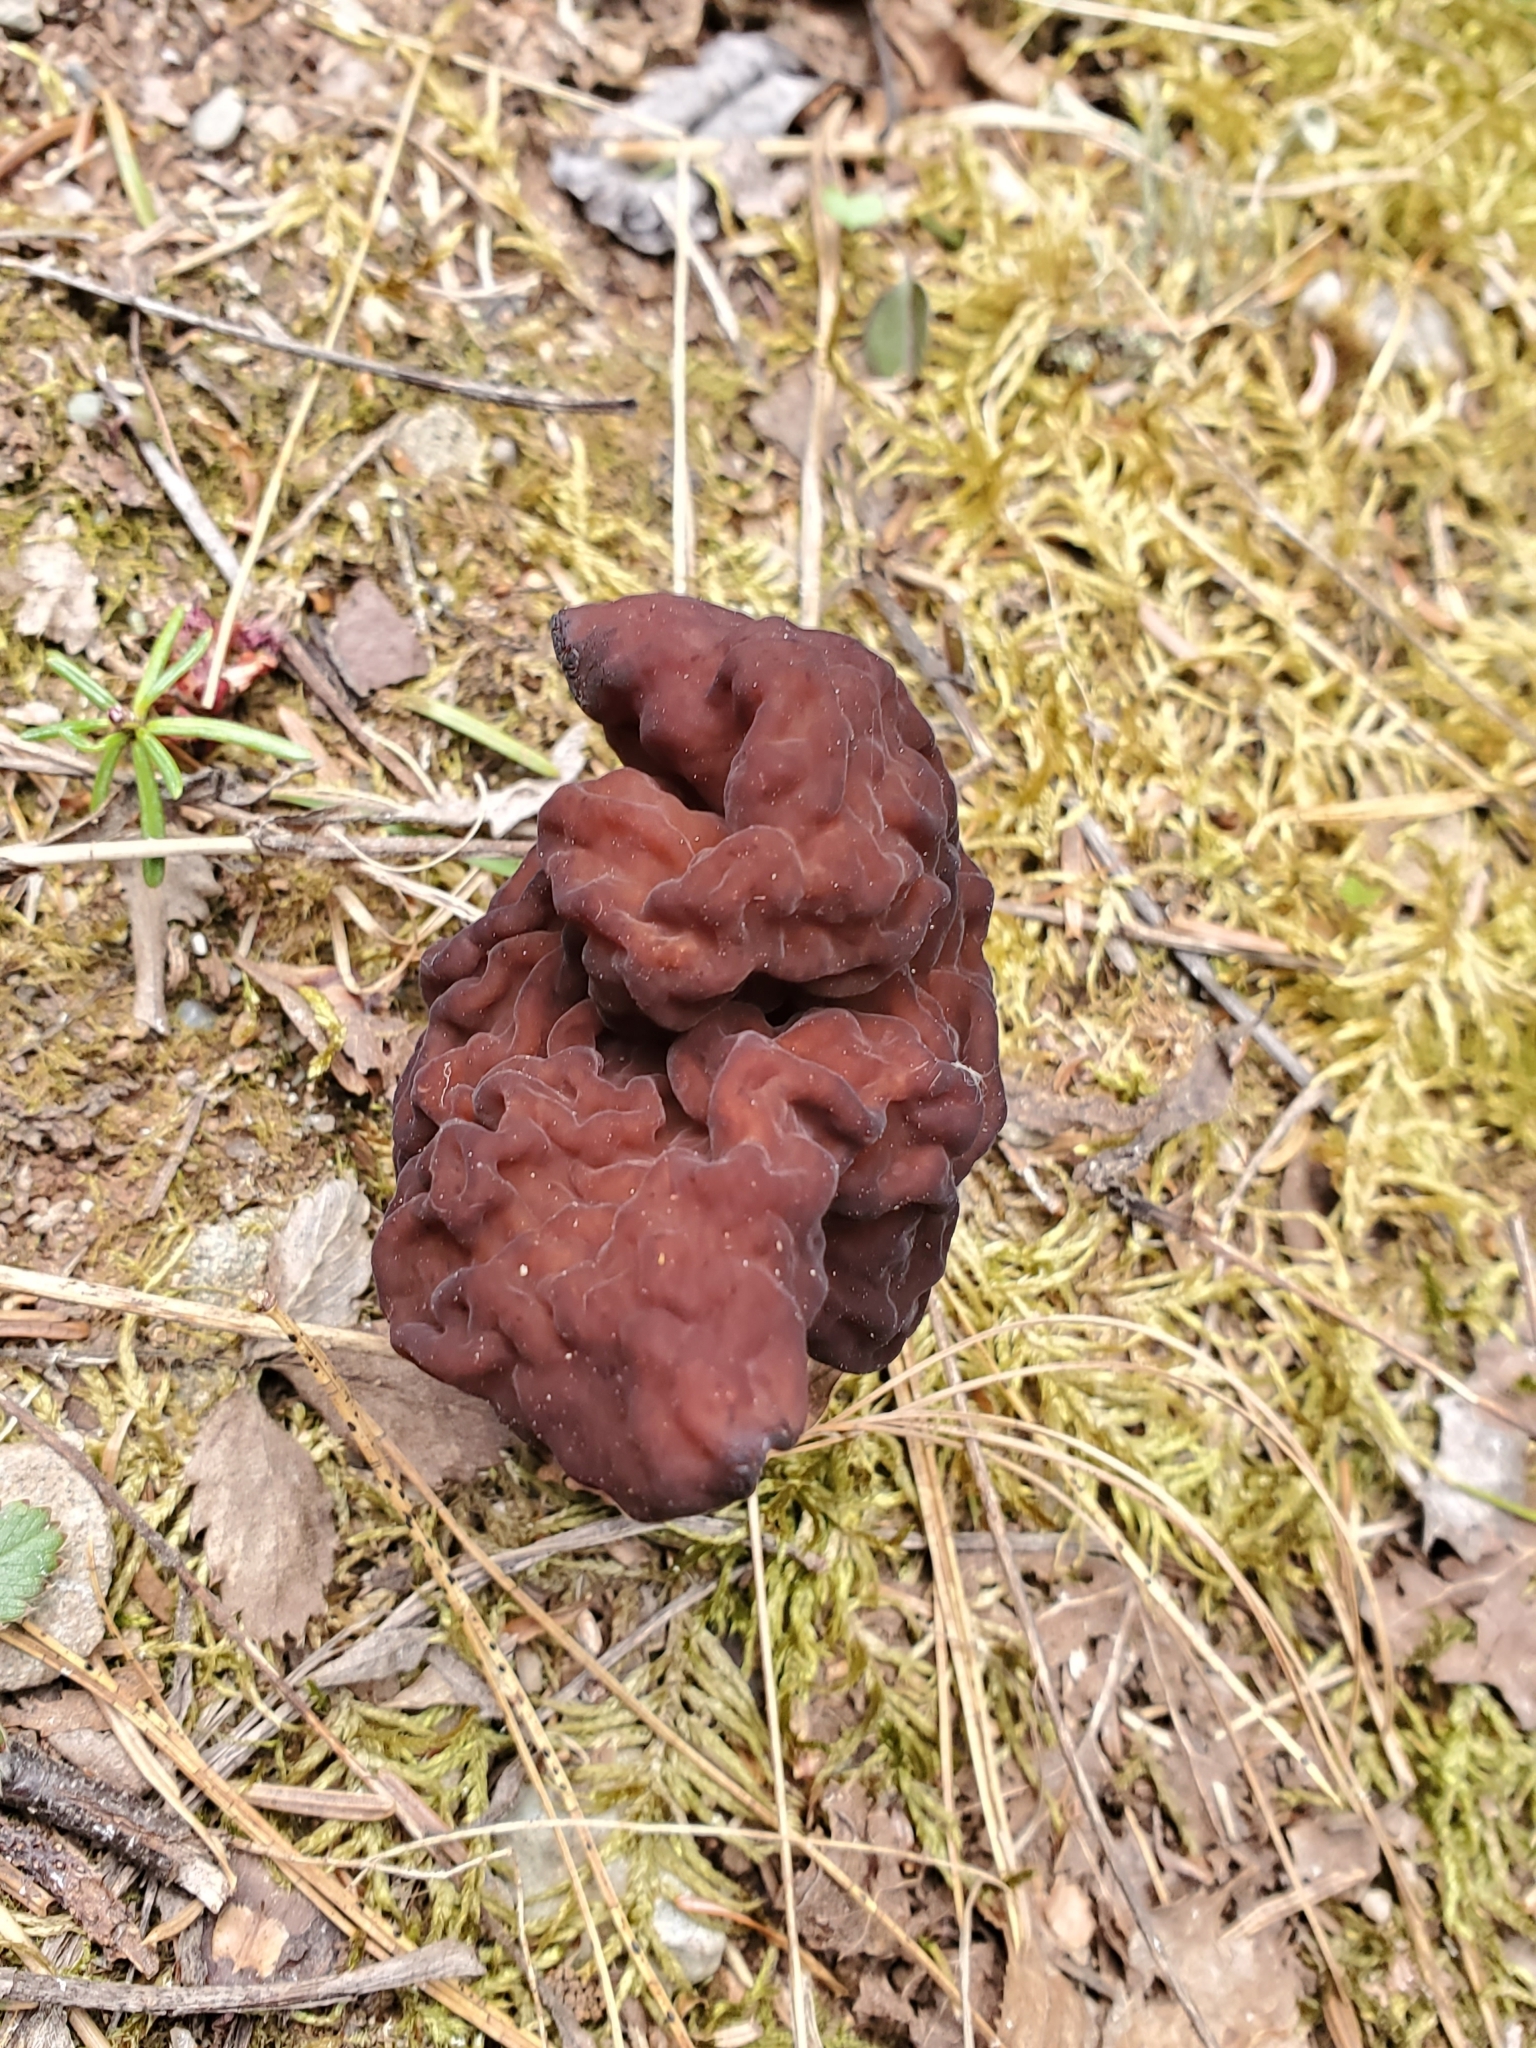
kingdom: Fungi
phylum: Ascomycota
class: Pezizomycetes
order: Pezizales
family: Discinaceae
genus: Gyromitra
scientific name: Gyromitra esculenta
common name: False morel
